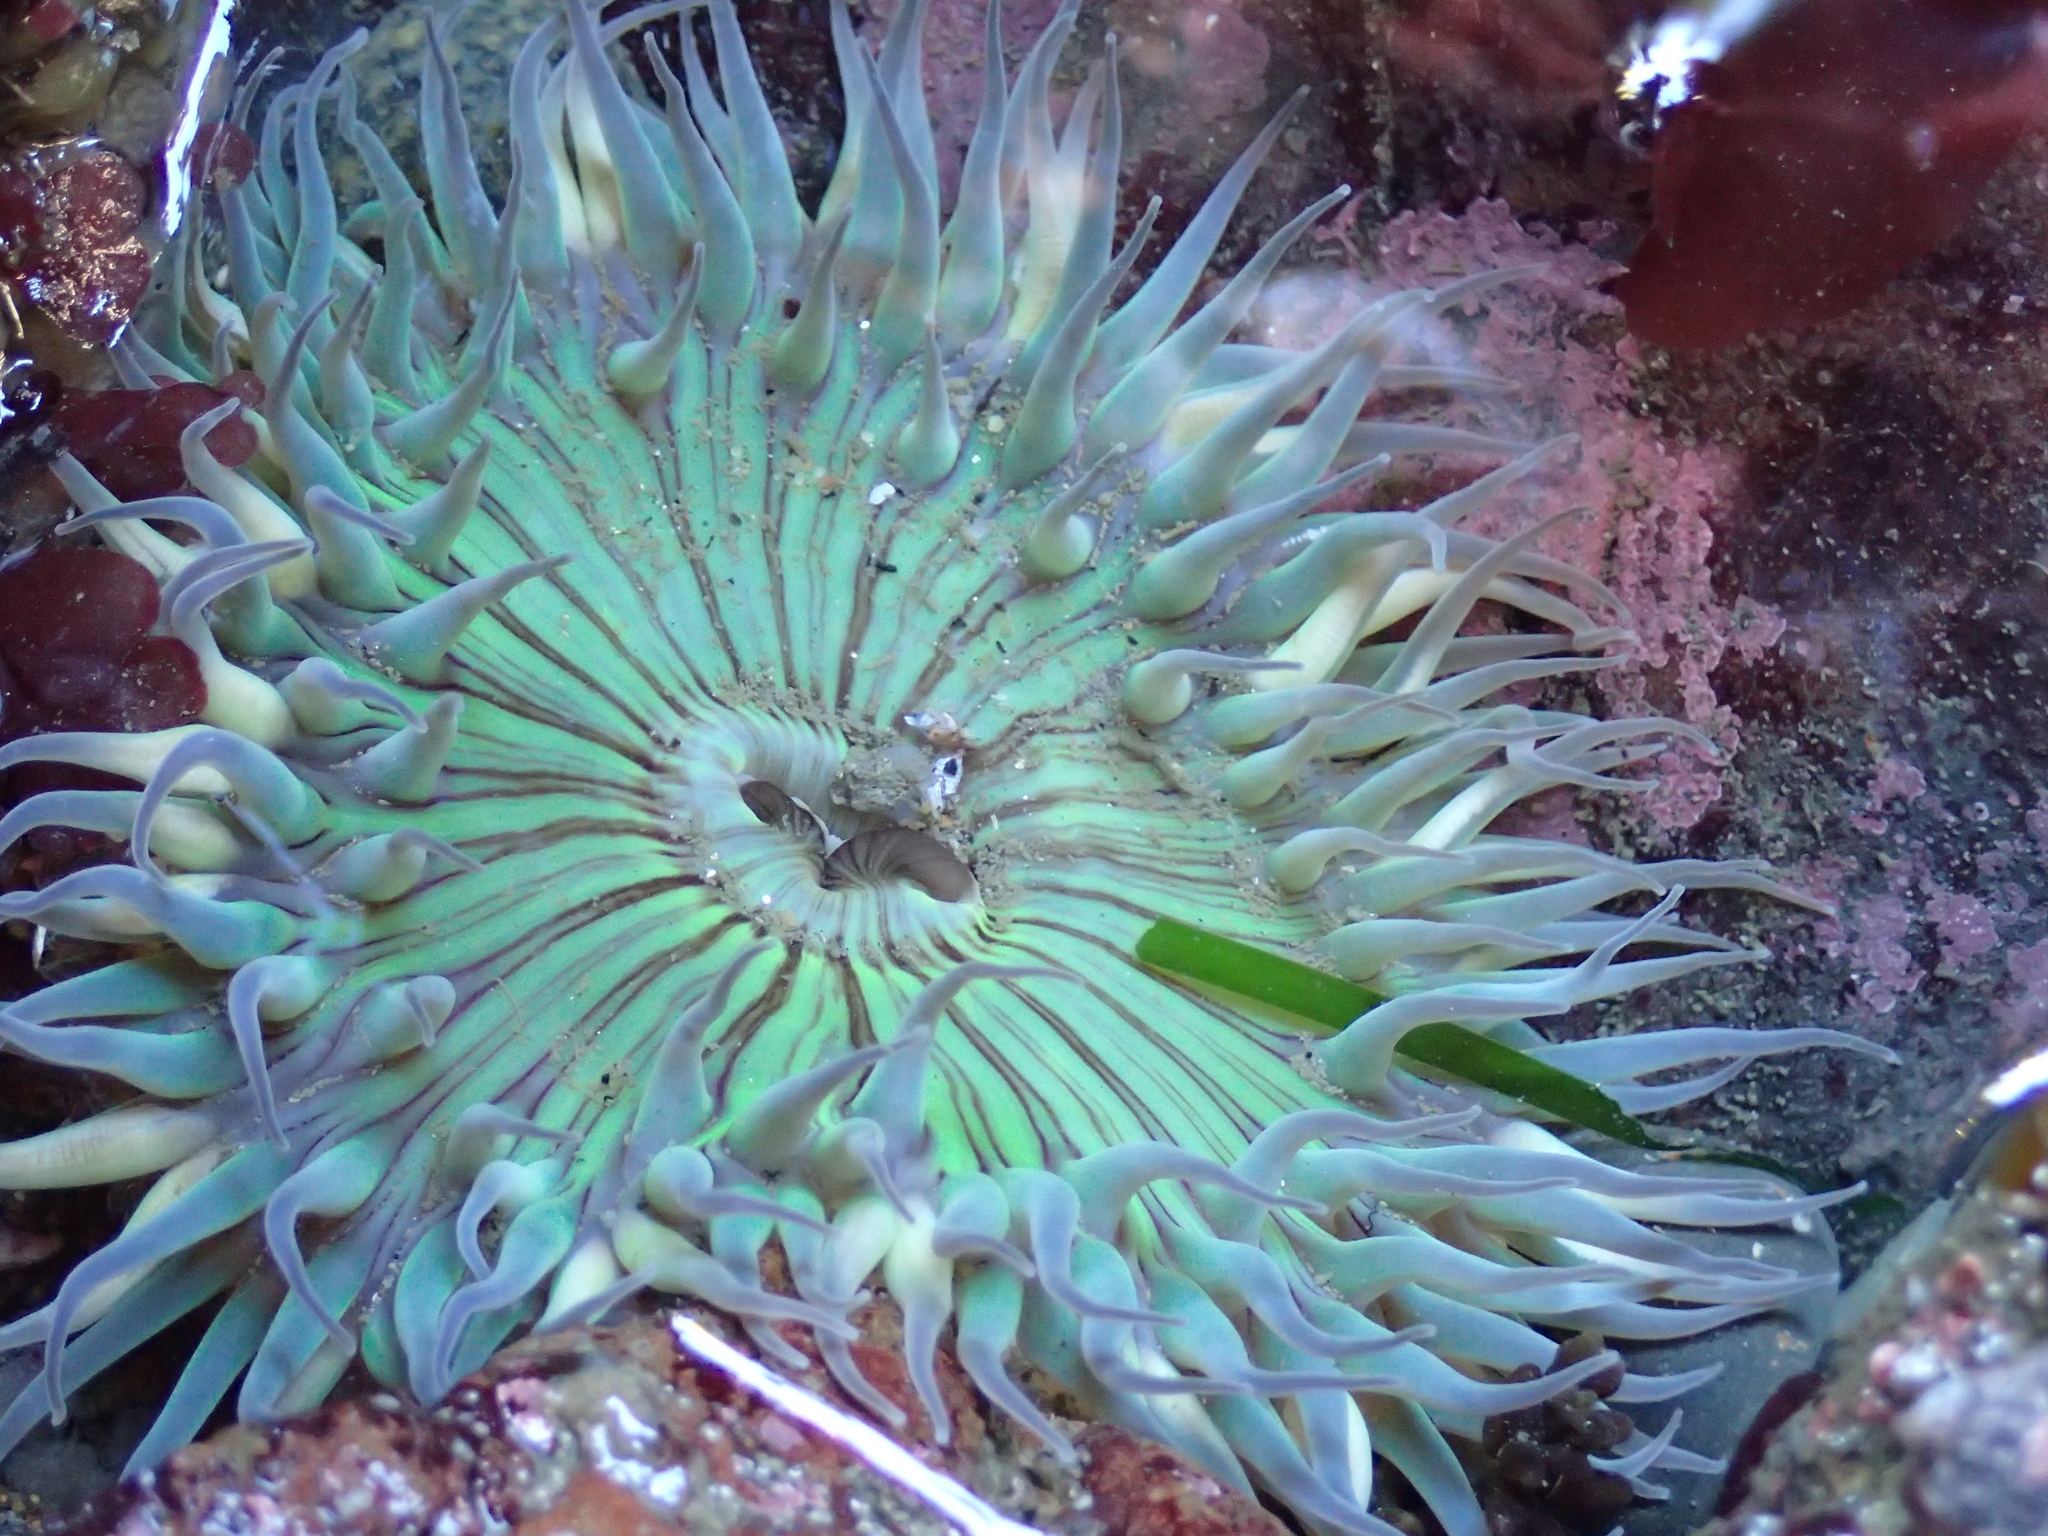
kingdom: Animalia
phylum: Cnidaria
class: Anthozoa
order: Actiniaria
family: Actiniidae
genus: Anthopleura
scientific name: Anthopleura sola
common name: Sun anemone
